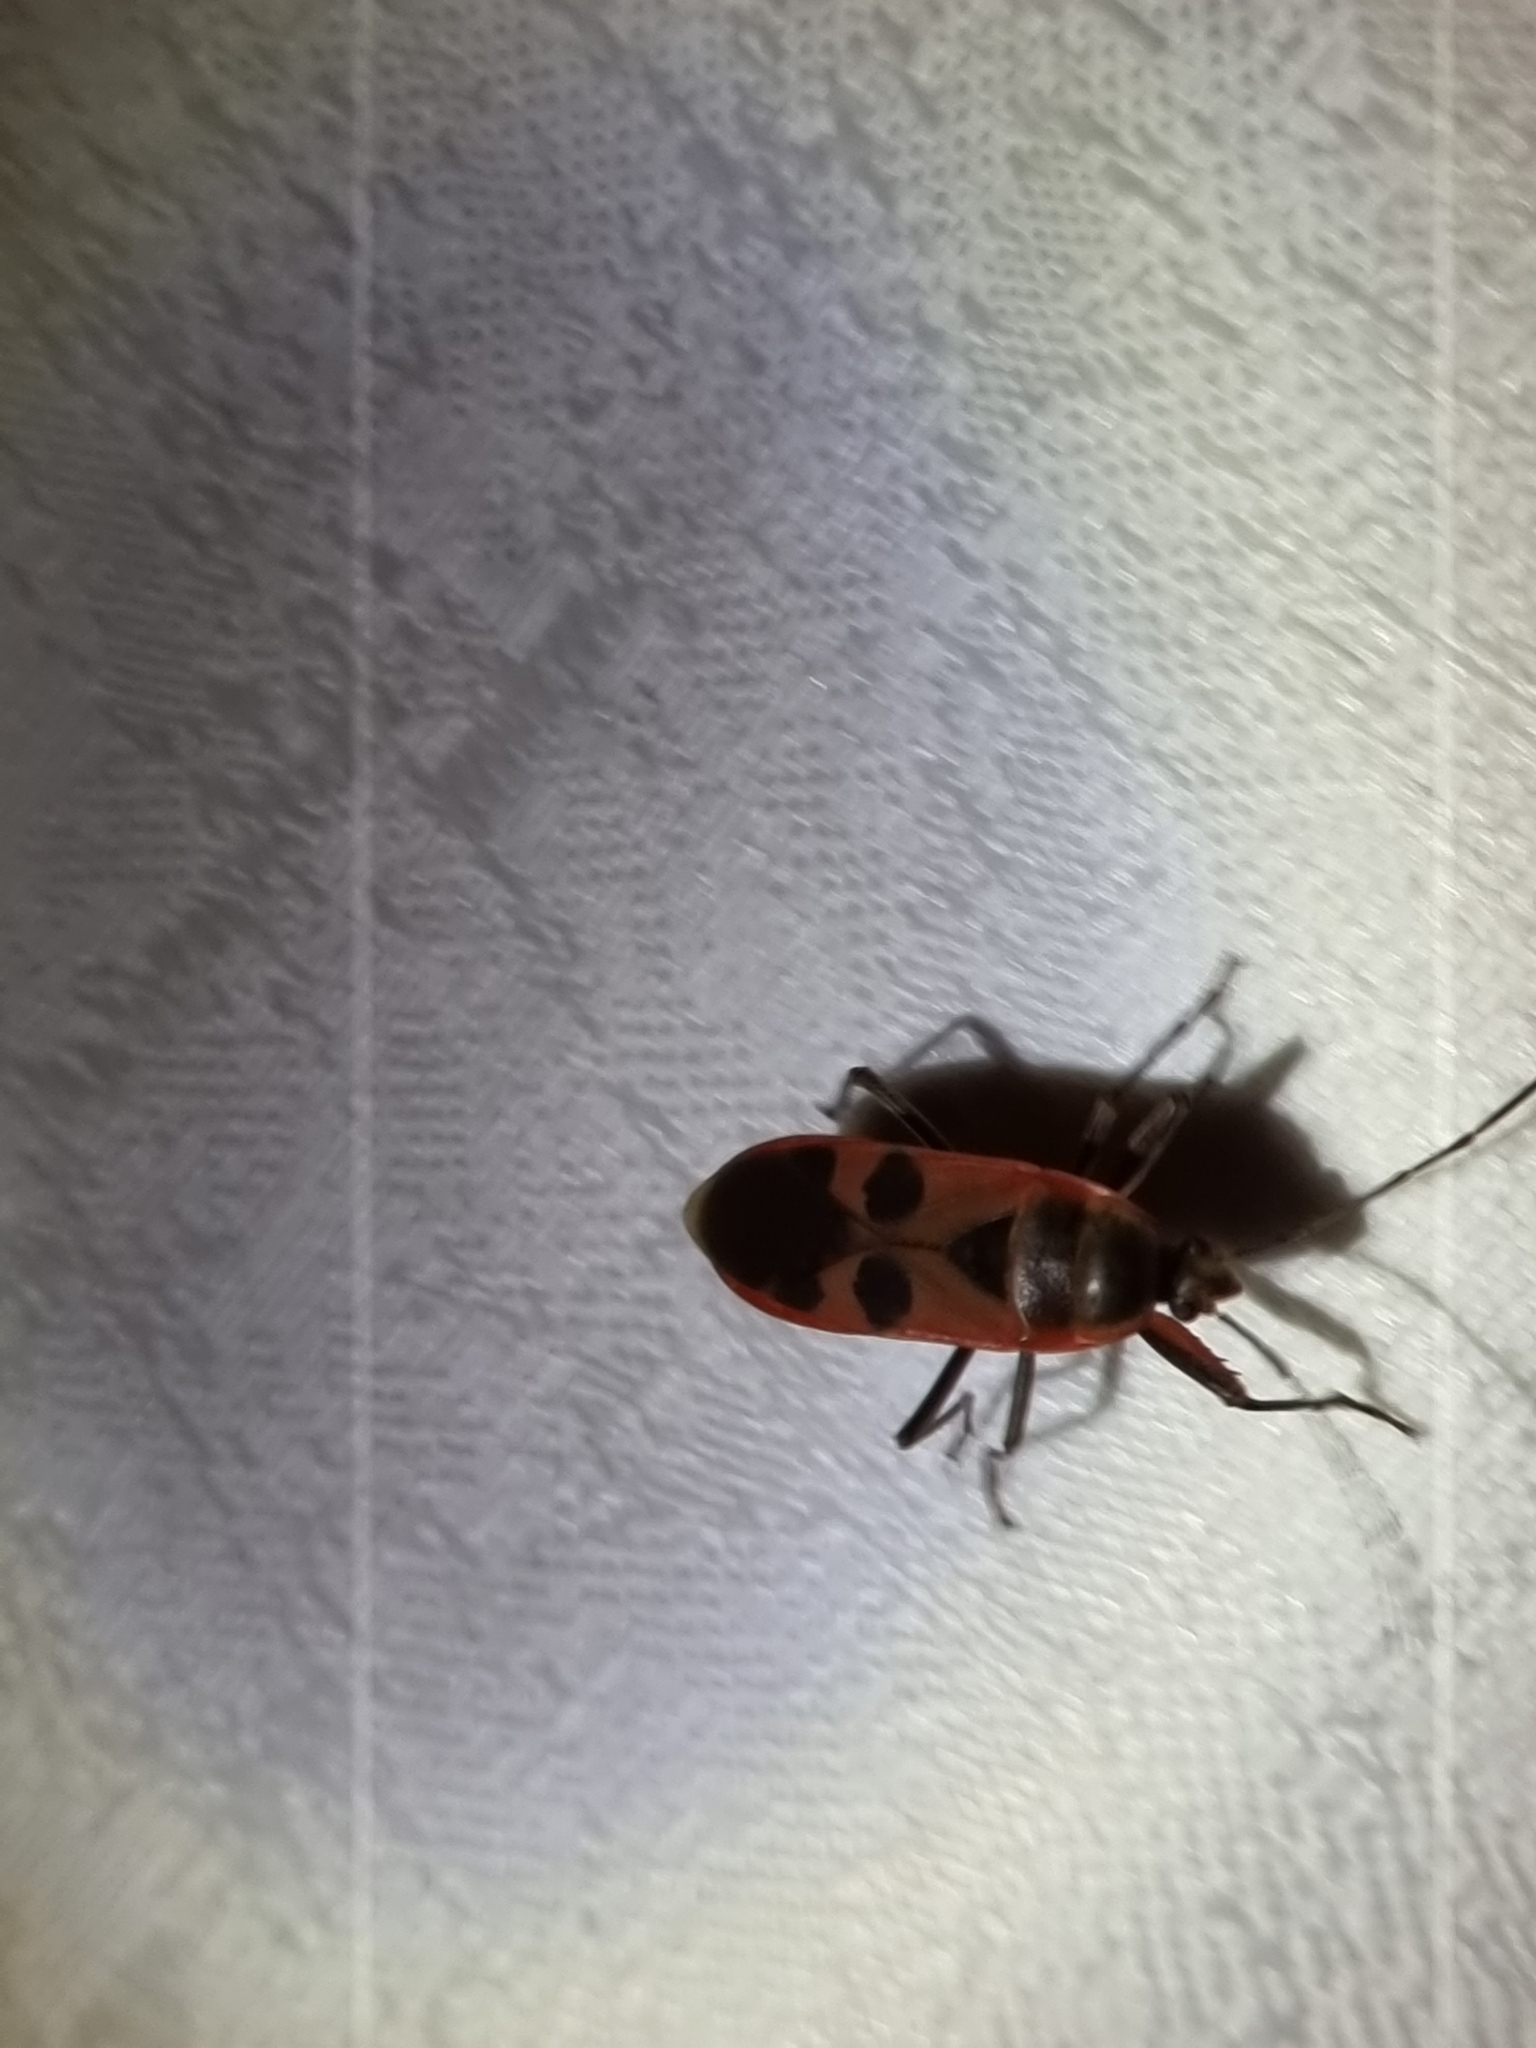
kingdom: Animalia
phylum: Arthropoda
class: Insecta
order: Hemiptera
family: Largidae
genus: Physopelta
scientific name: Physopelta gutta
